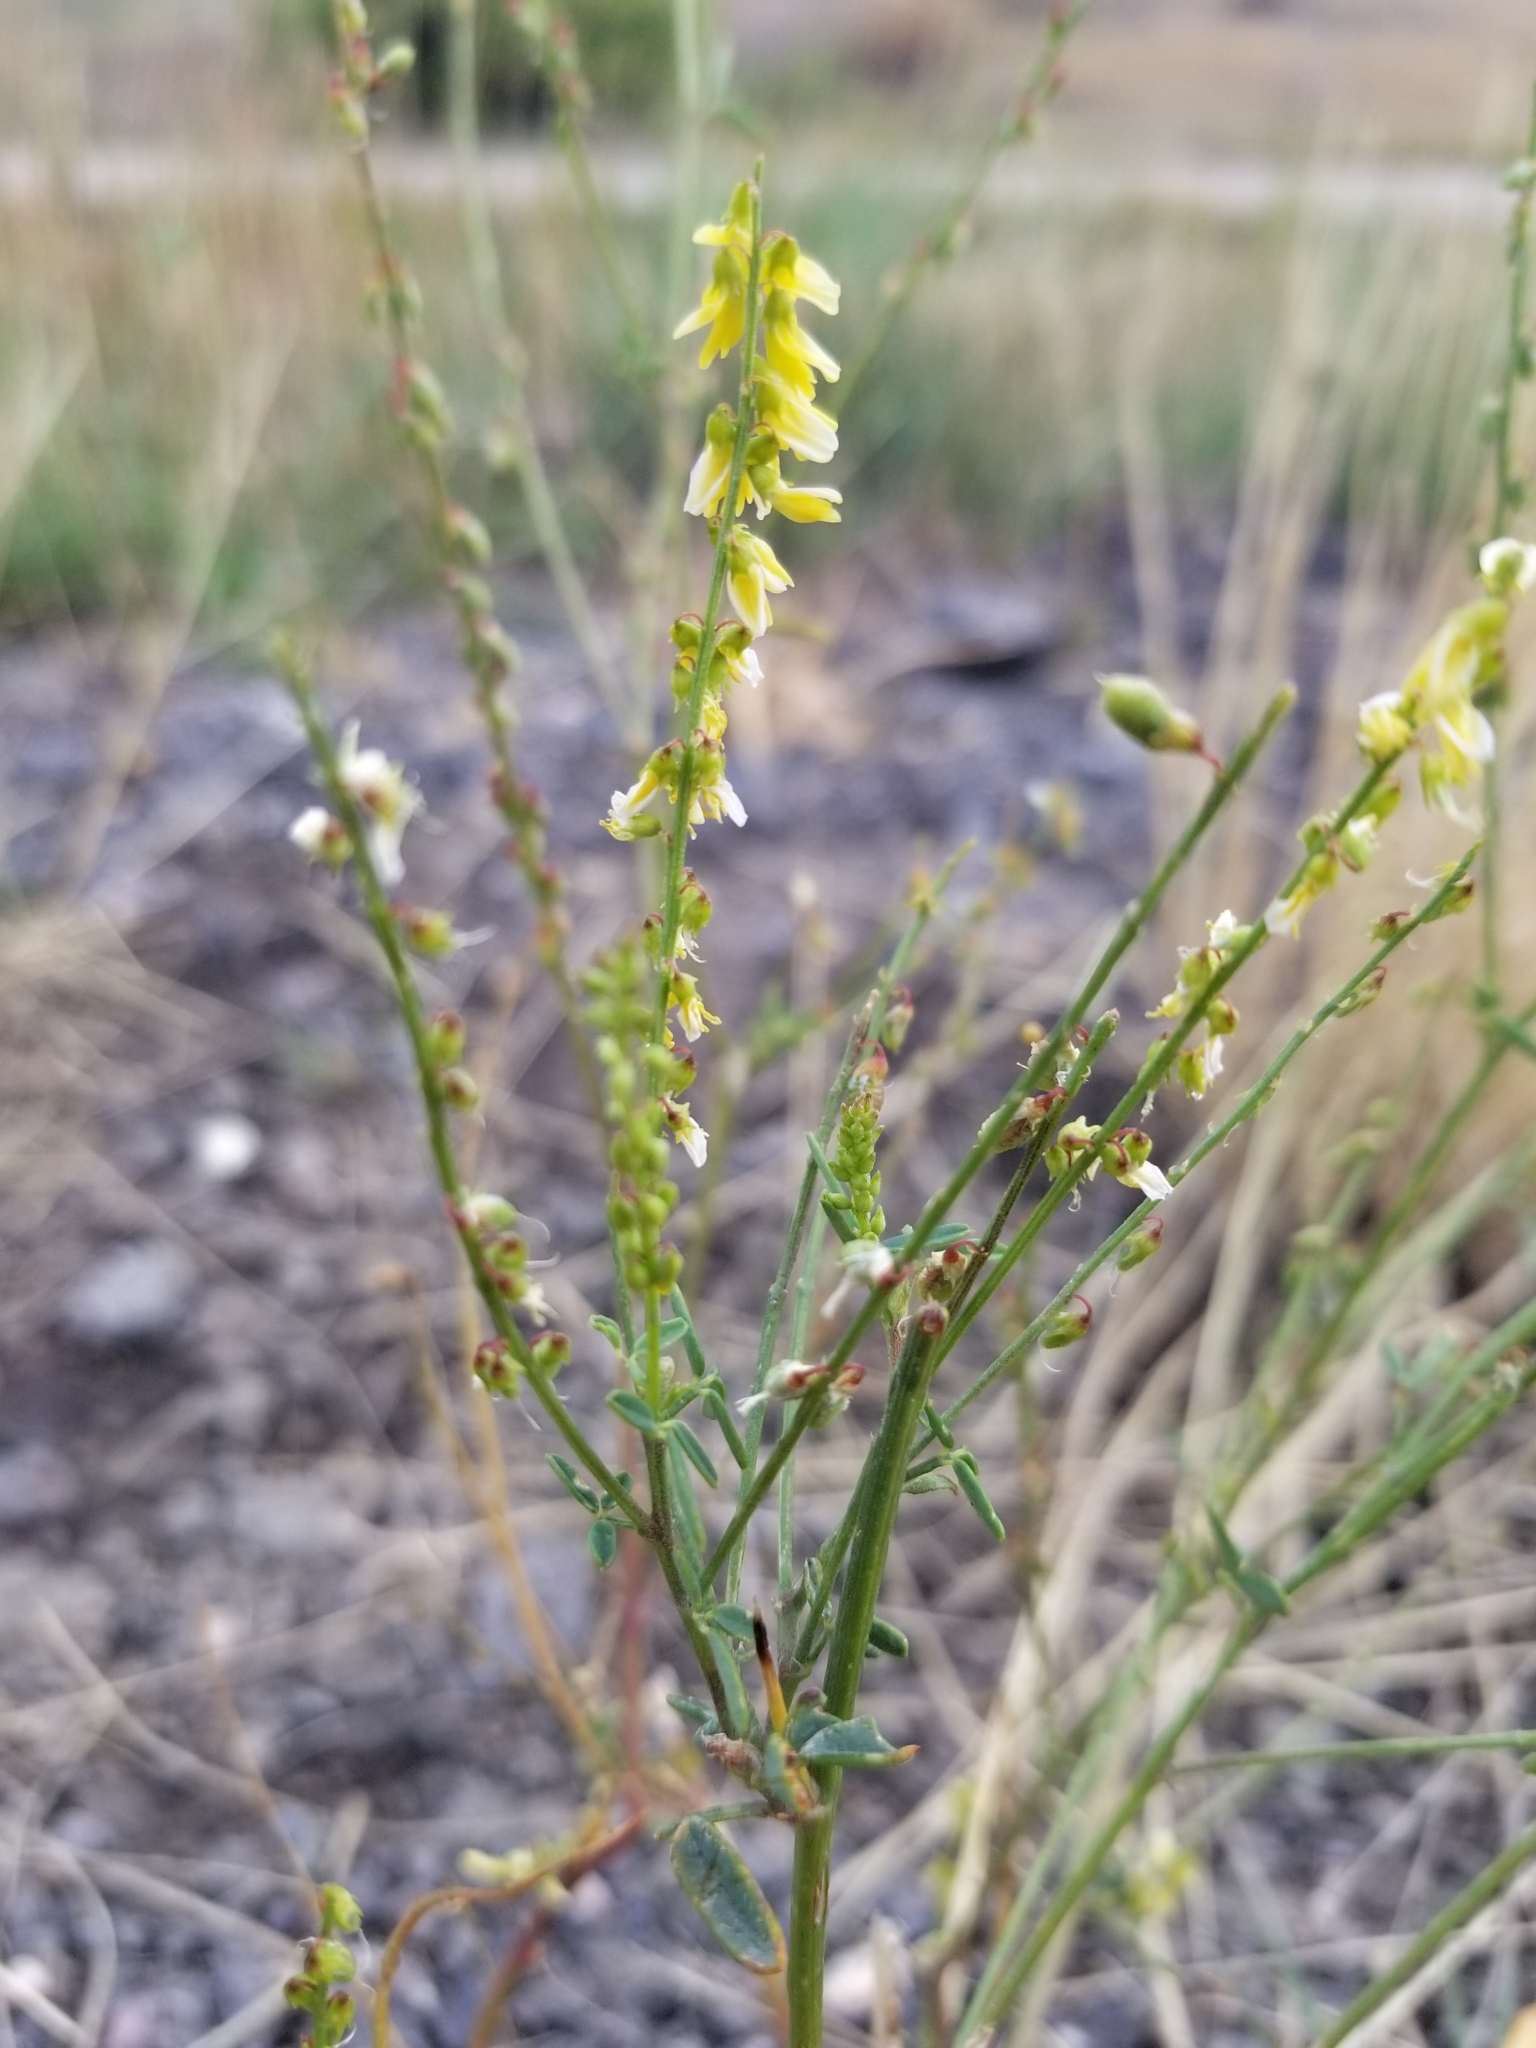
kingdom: Plantae
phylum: Tracheophyta
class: Magnoliopsida
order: Fabales
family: Fabaceae
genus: Melilotus
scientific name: Melilotus officinalis
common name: Sweetclover
